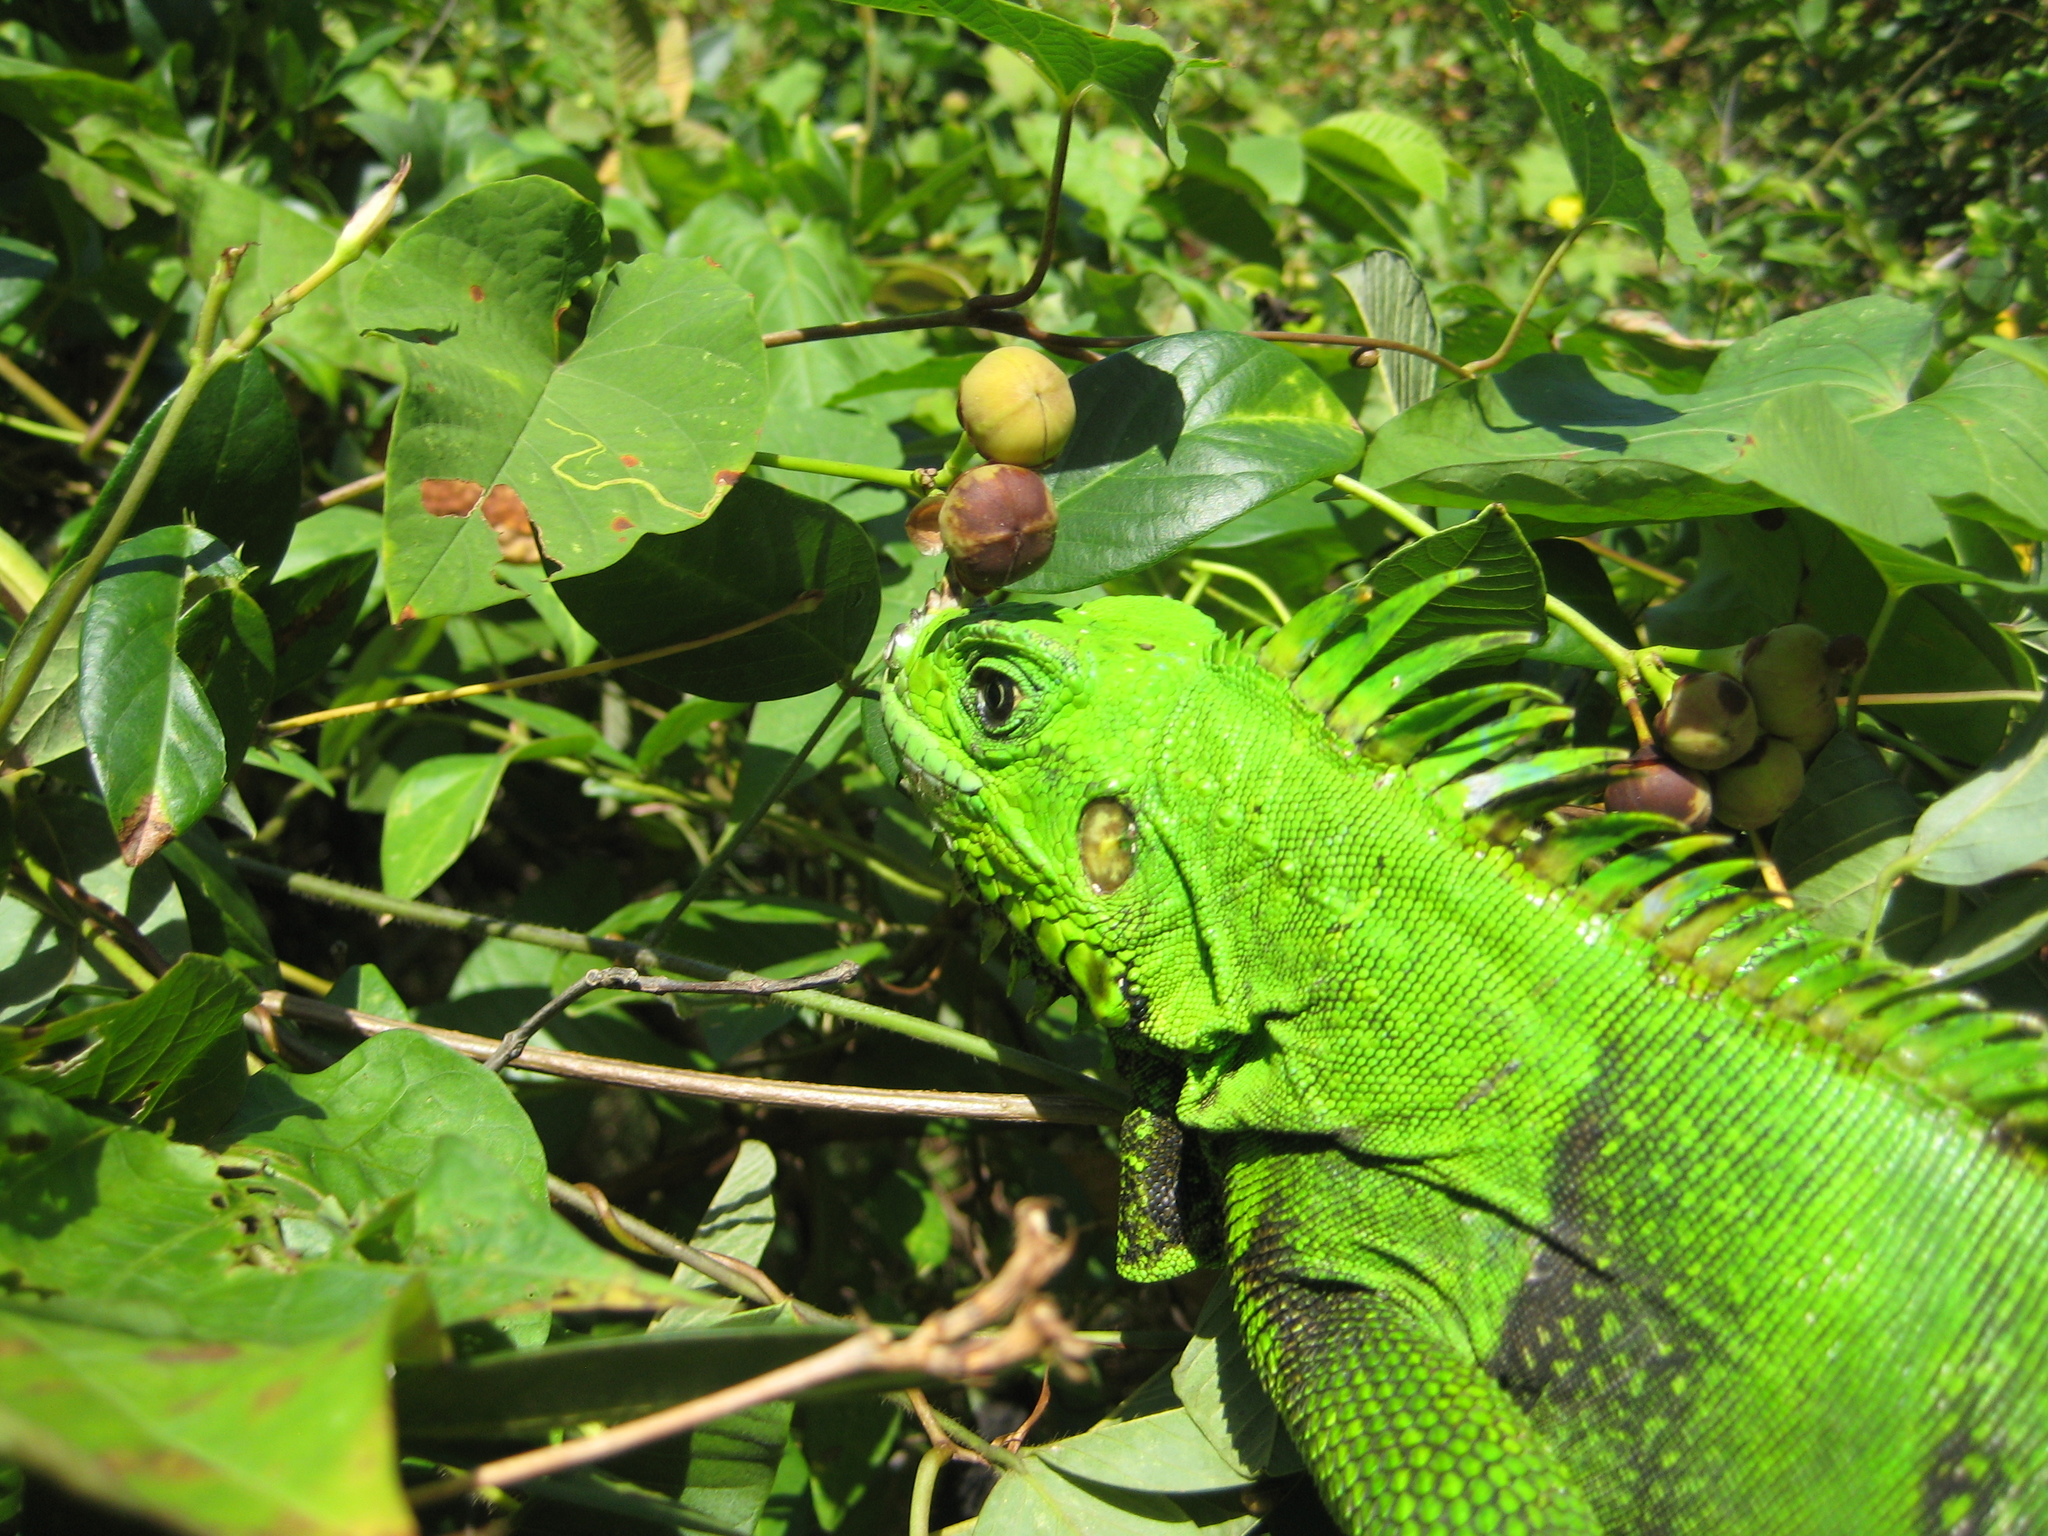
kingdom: Animalia
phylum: Chordata
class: Squamata
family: Iguanidae
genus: Iguana
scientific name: Iguana iguana
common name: Green iguana
